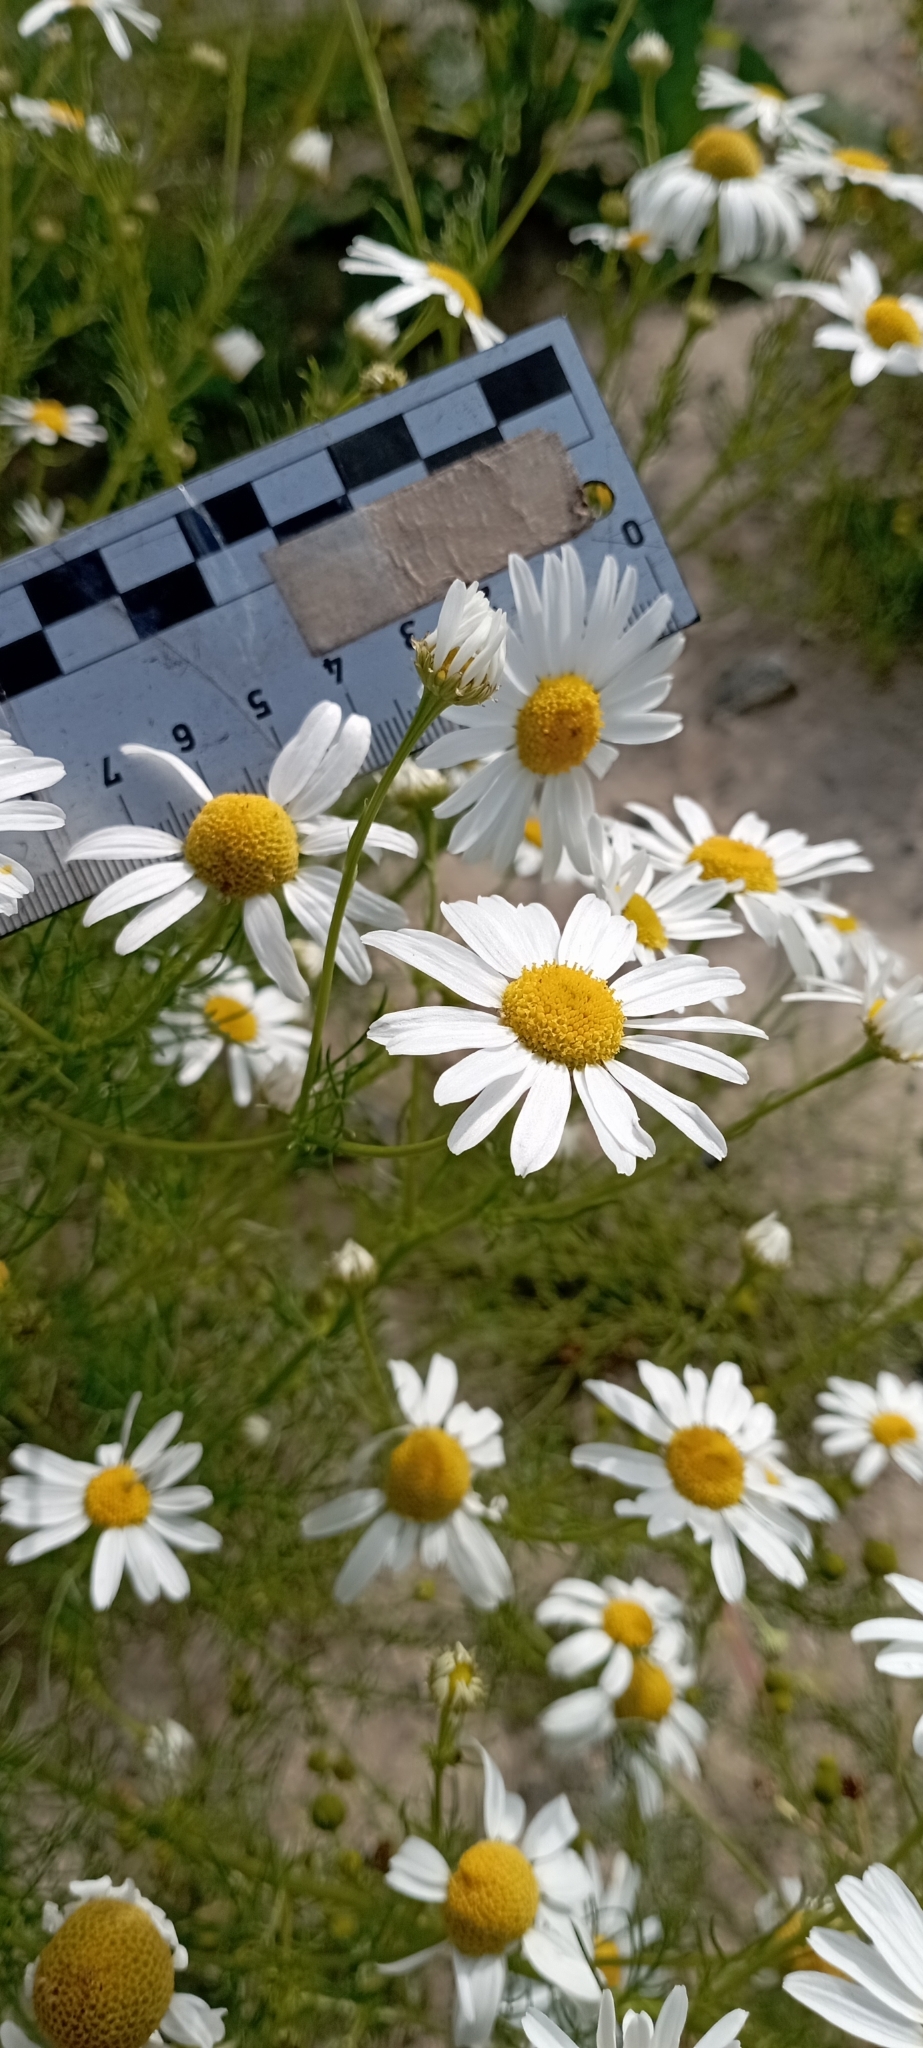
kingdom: Plantae
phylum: Tracheophyta
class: Magnoliopsida
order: Asterales
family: Asteraceae
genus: Tripleurospermum
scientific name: Tripleurospermum inodorum
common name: Scentless mayweed
